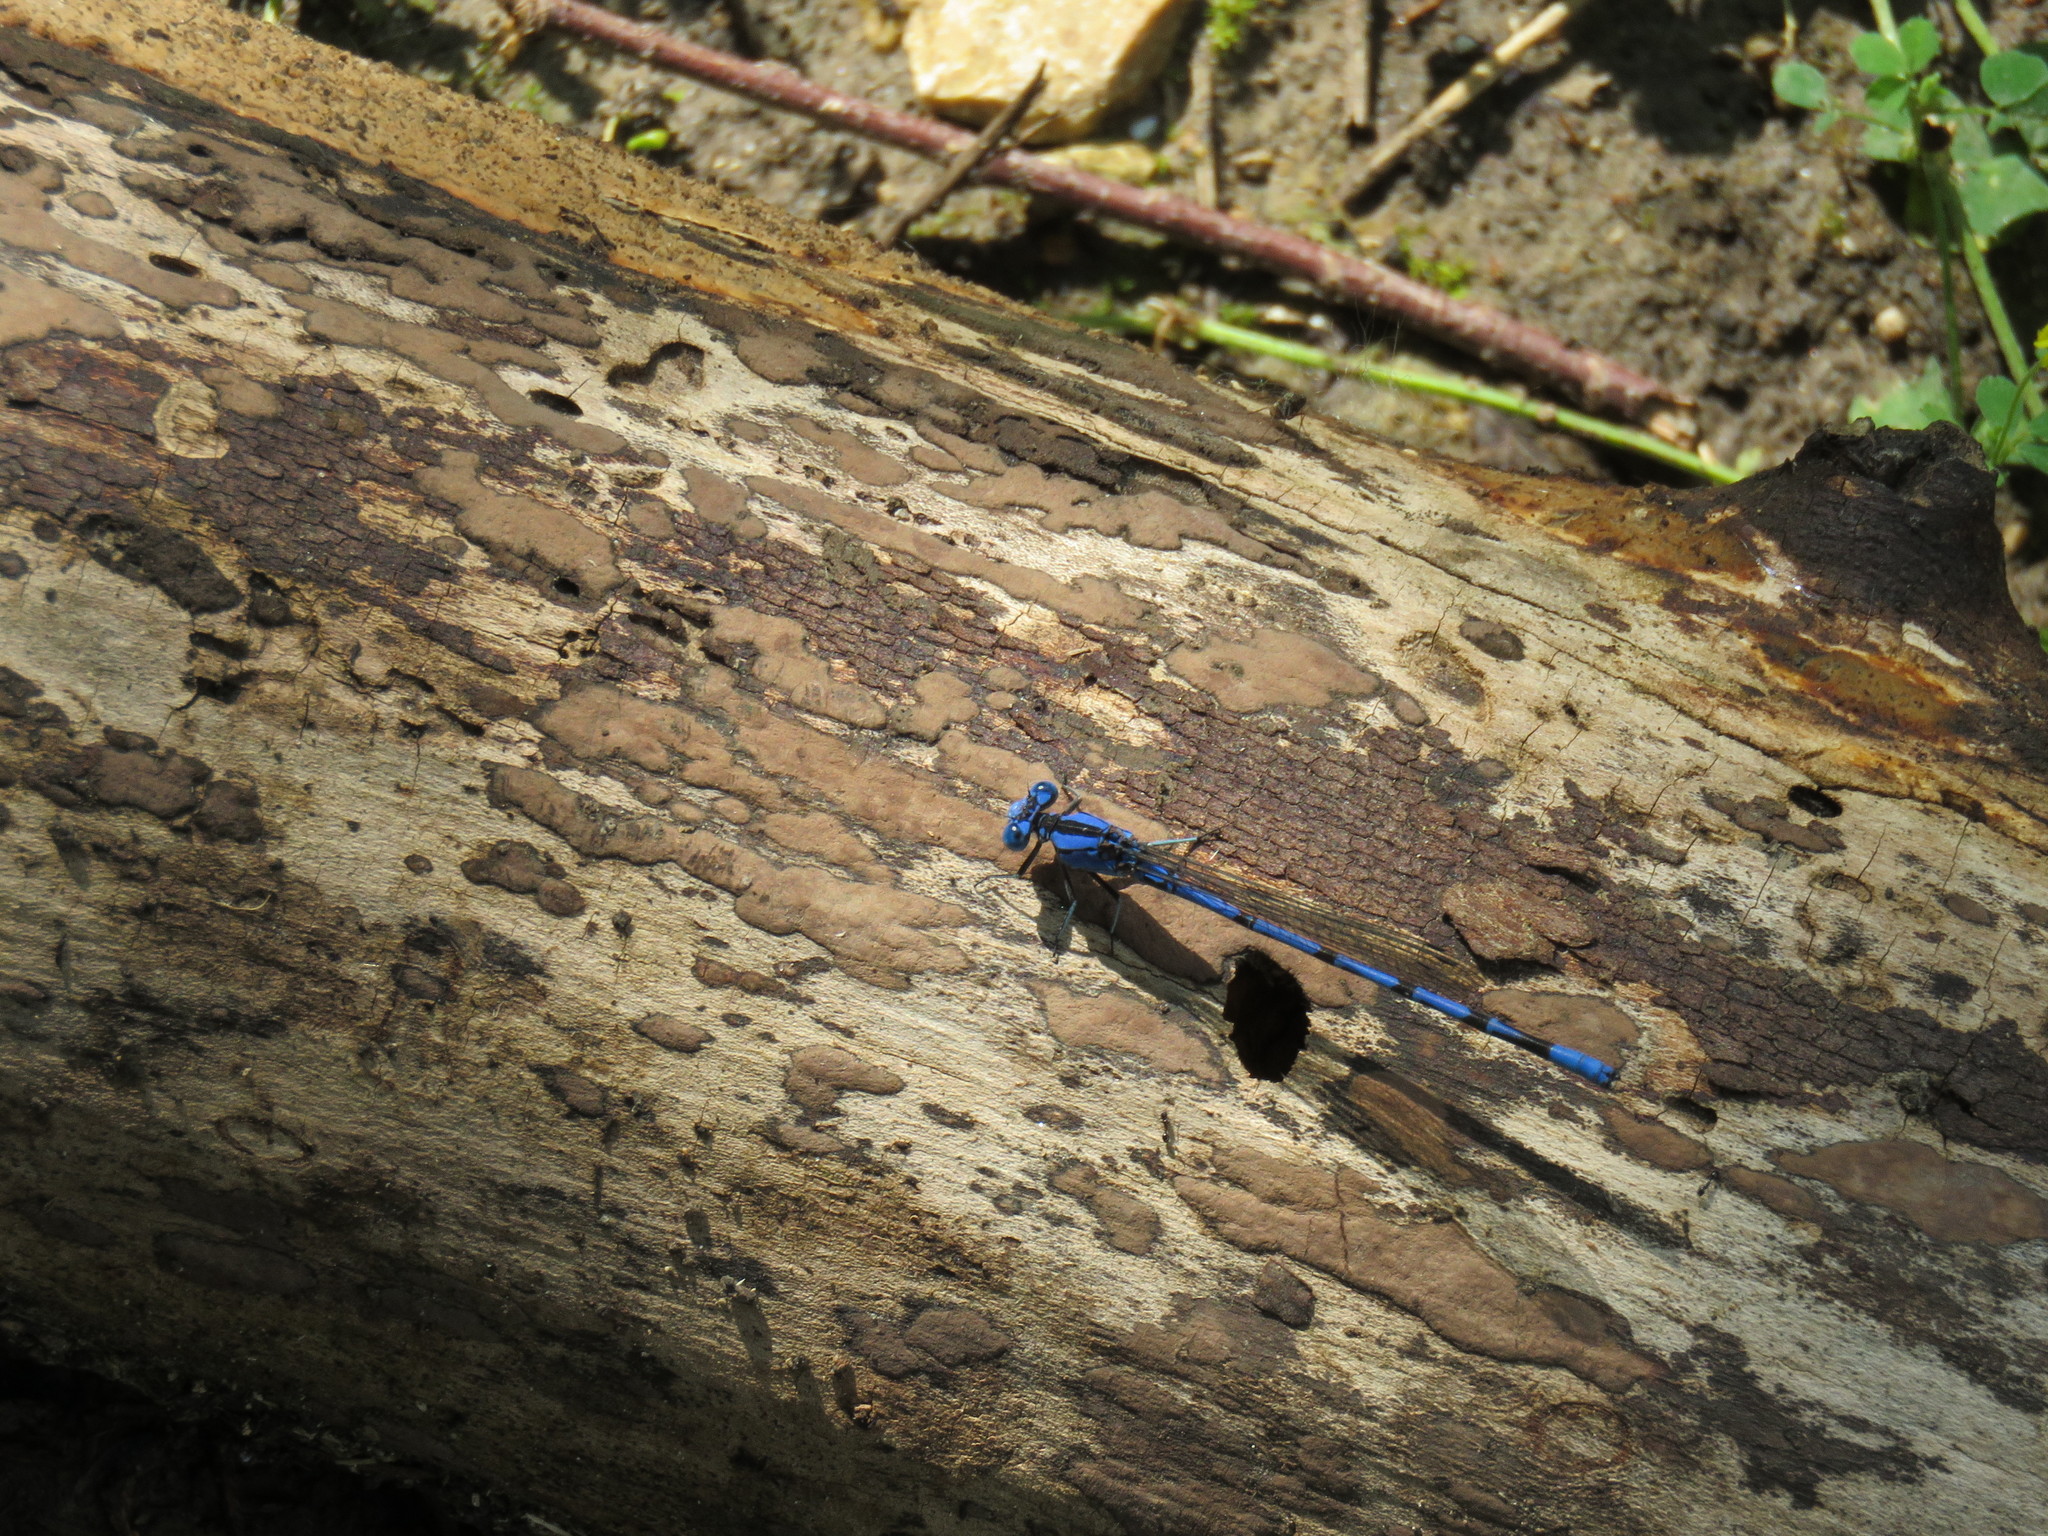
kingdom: Animalia
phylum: Arthropoda
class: Insecta
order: Odonata
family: Coenagrionidae
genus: Argia
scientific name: Argia funebris
